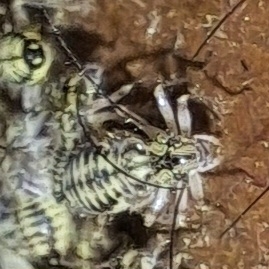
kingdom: Animalia
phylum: Arthropoda
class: Insecta
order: Psocodea
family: Psocidae
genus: Psococerastis
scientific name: Psococerastis gibbosa
